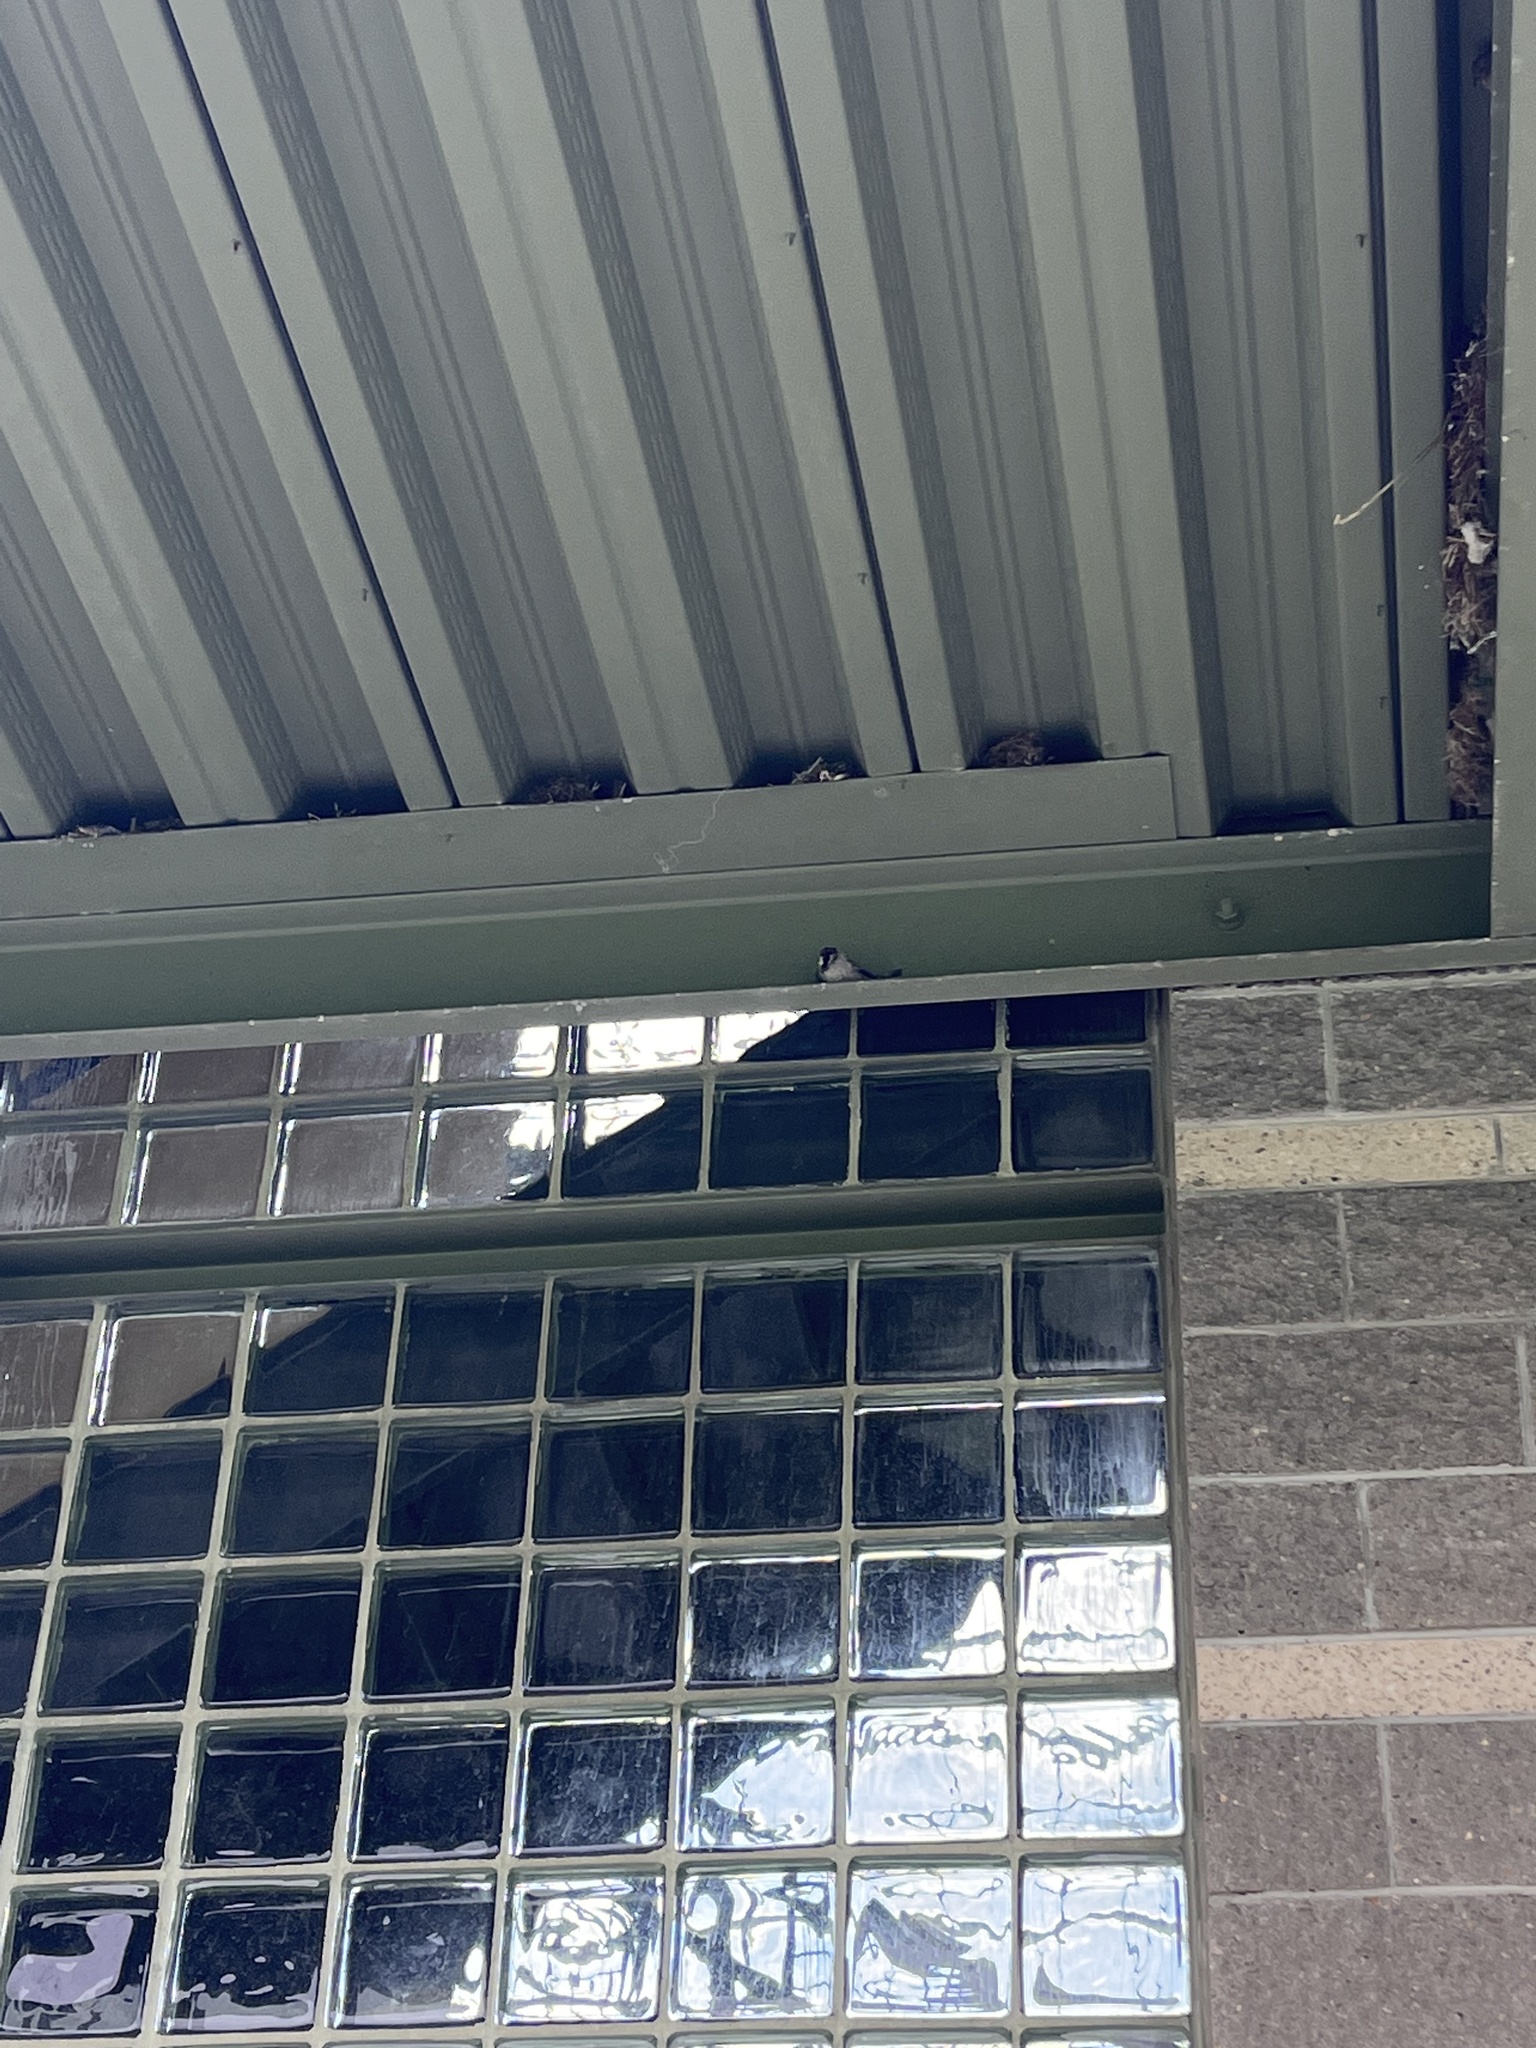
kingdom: Animalia
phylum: Chordata
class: Aves
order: Passeriformes
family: Passeridae
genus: Passer
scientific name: Passer domesticus
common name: House sparrow
